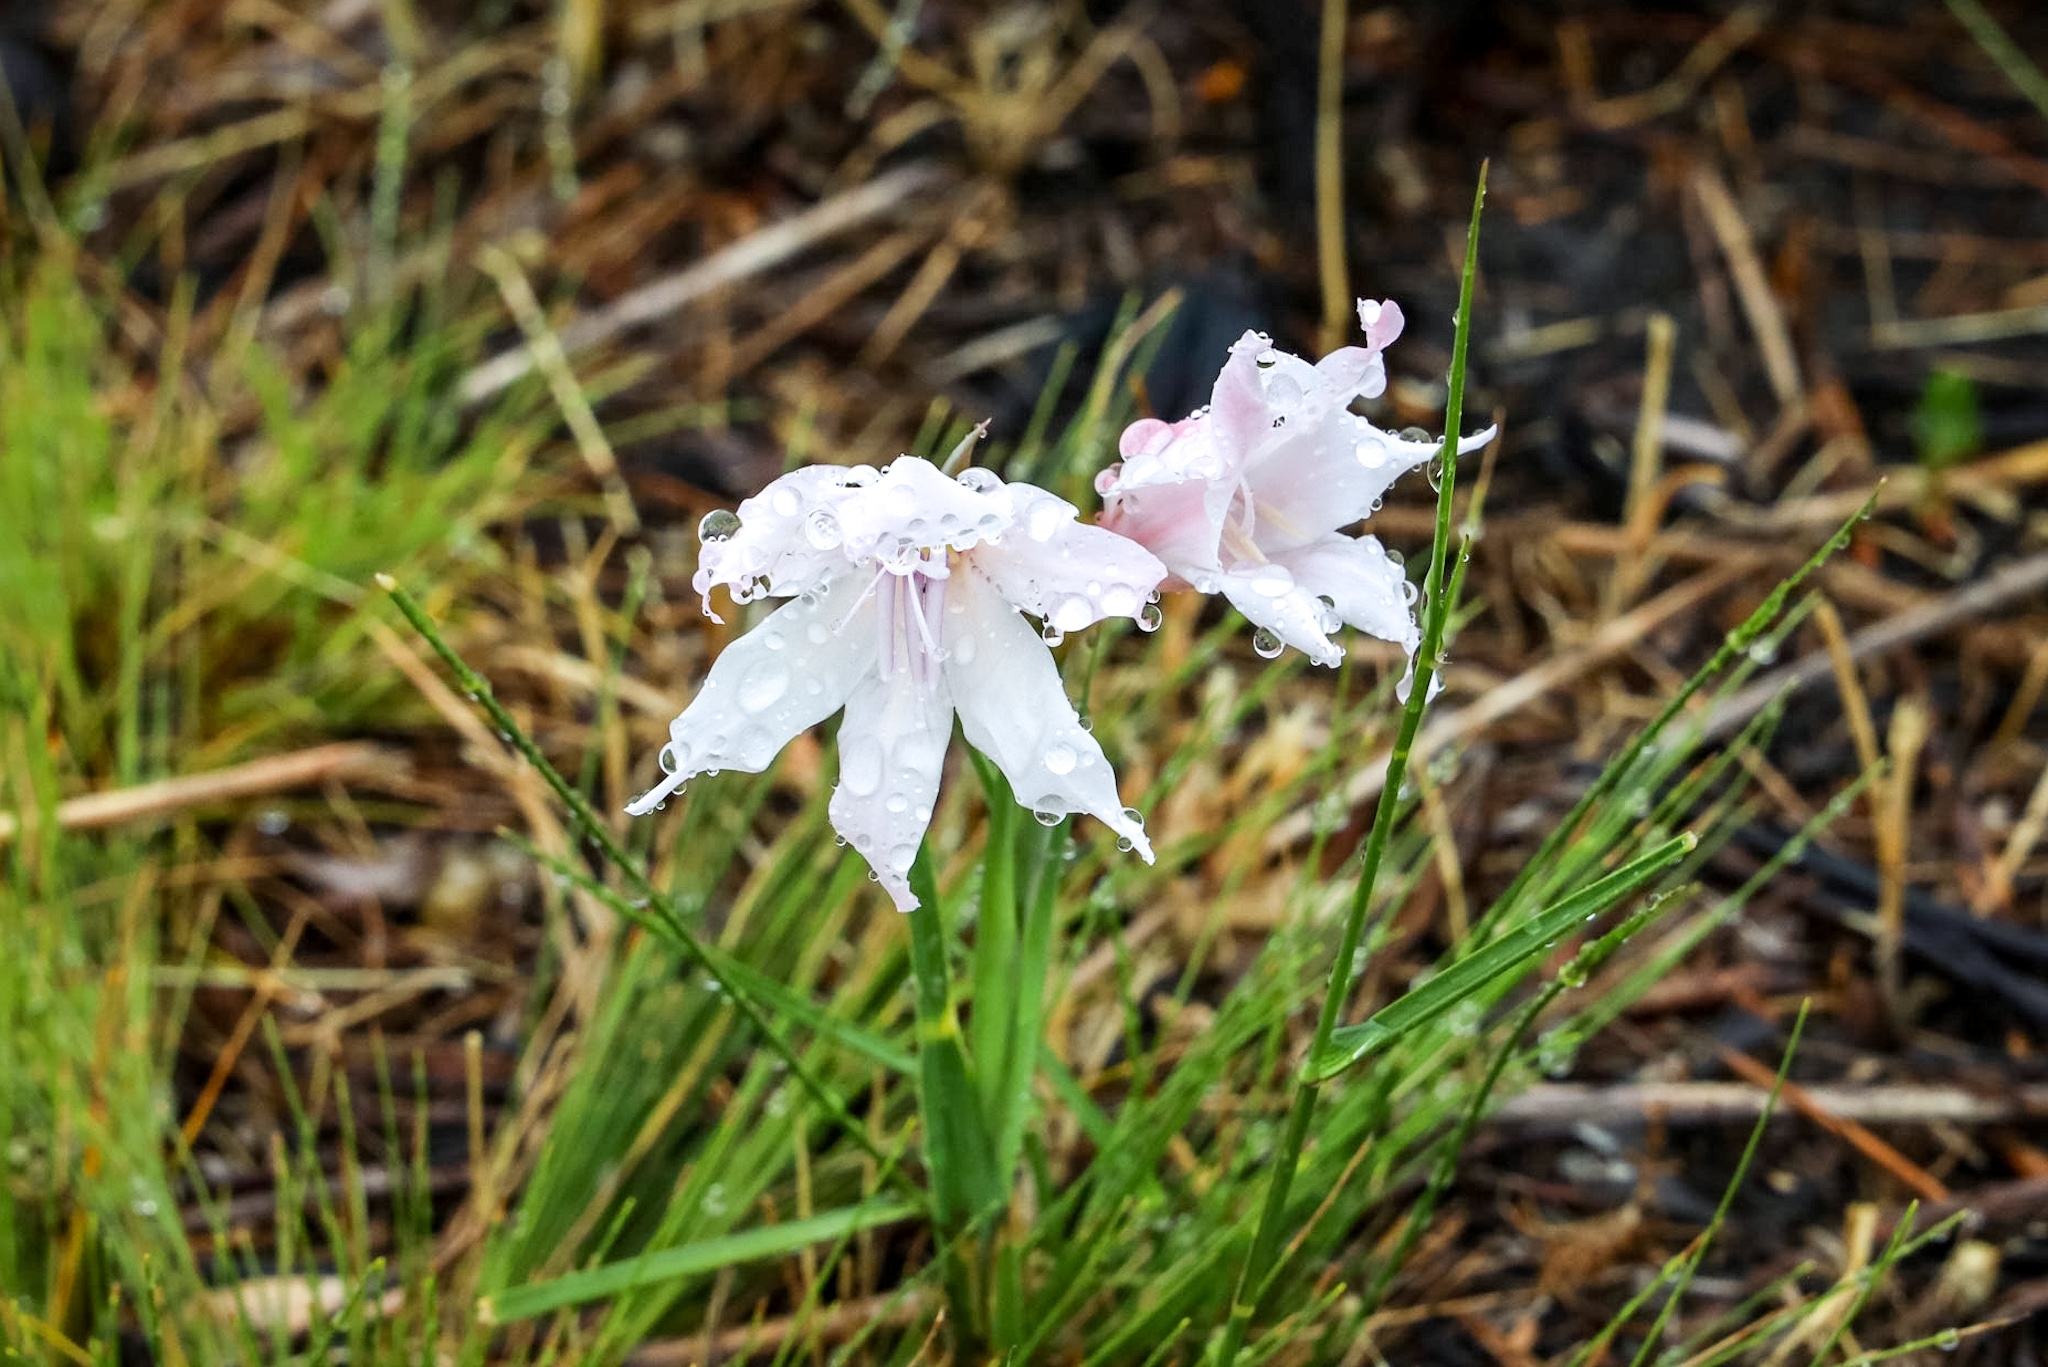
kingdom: Plantae
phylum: Tracheophyta
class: Liliopsida
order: Asparagales
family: Iridaceae
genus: Gladiolus
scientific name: Gladiolus carneus
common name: Painted-lady
